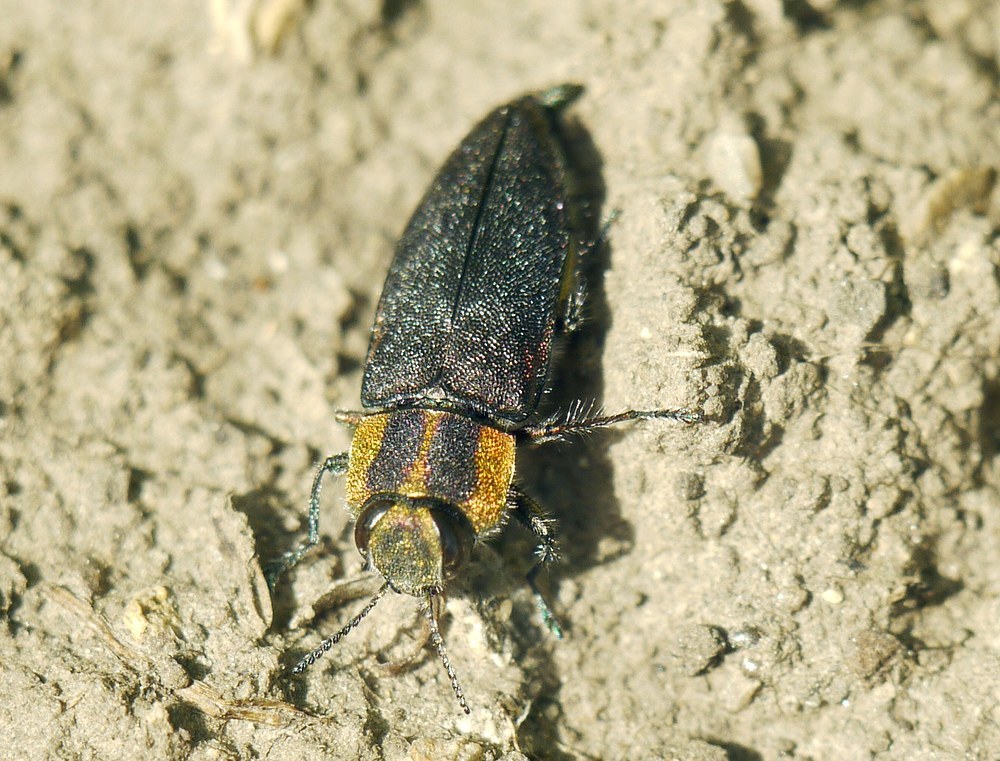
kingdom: Animalia
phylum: Arthropoda
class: Insecta
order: Coleoptera
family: Buprestidae
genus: Anthaxia
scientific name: Anthaxia manca
